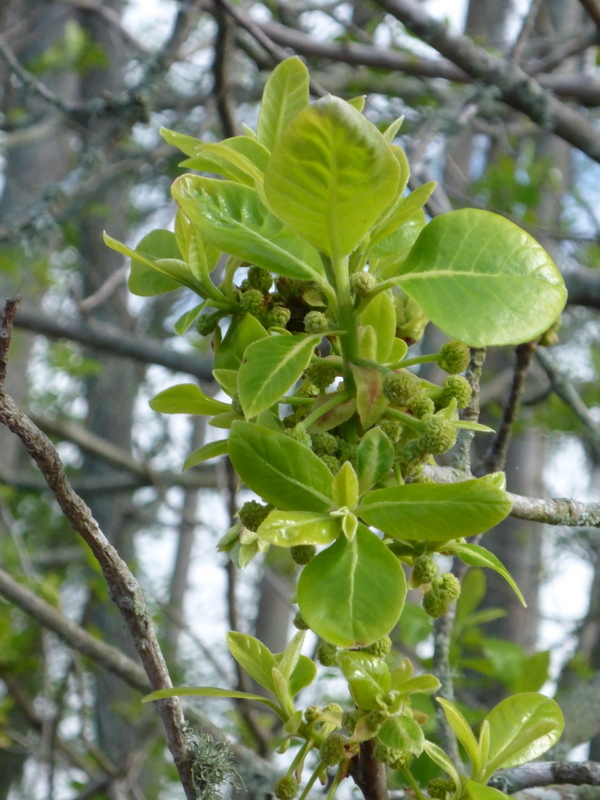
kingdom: Plantae
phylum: Tracheophyta
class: Magnoliopsida
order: Cornales
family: Nyssaceae
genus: Nyssa
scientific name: Nyssa ogeche
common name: Ogeechee tupelo
